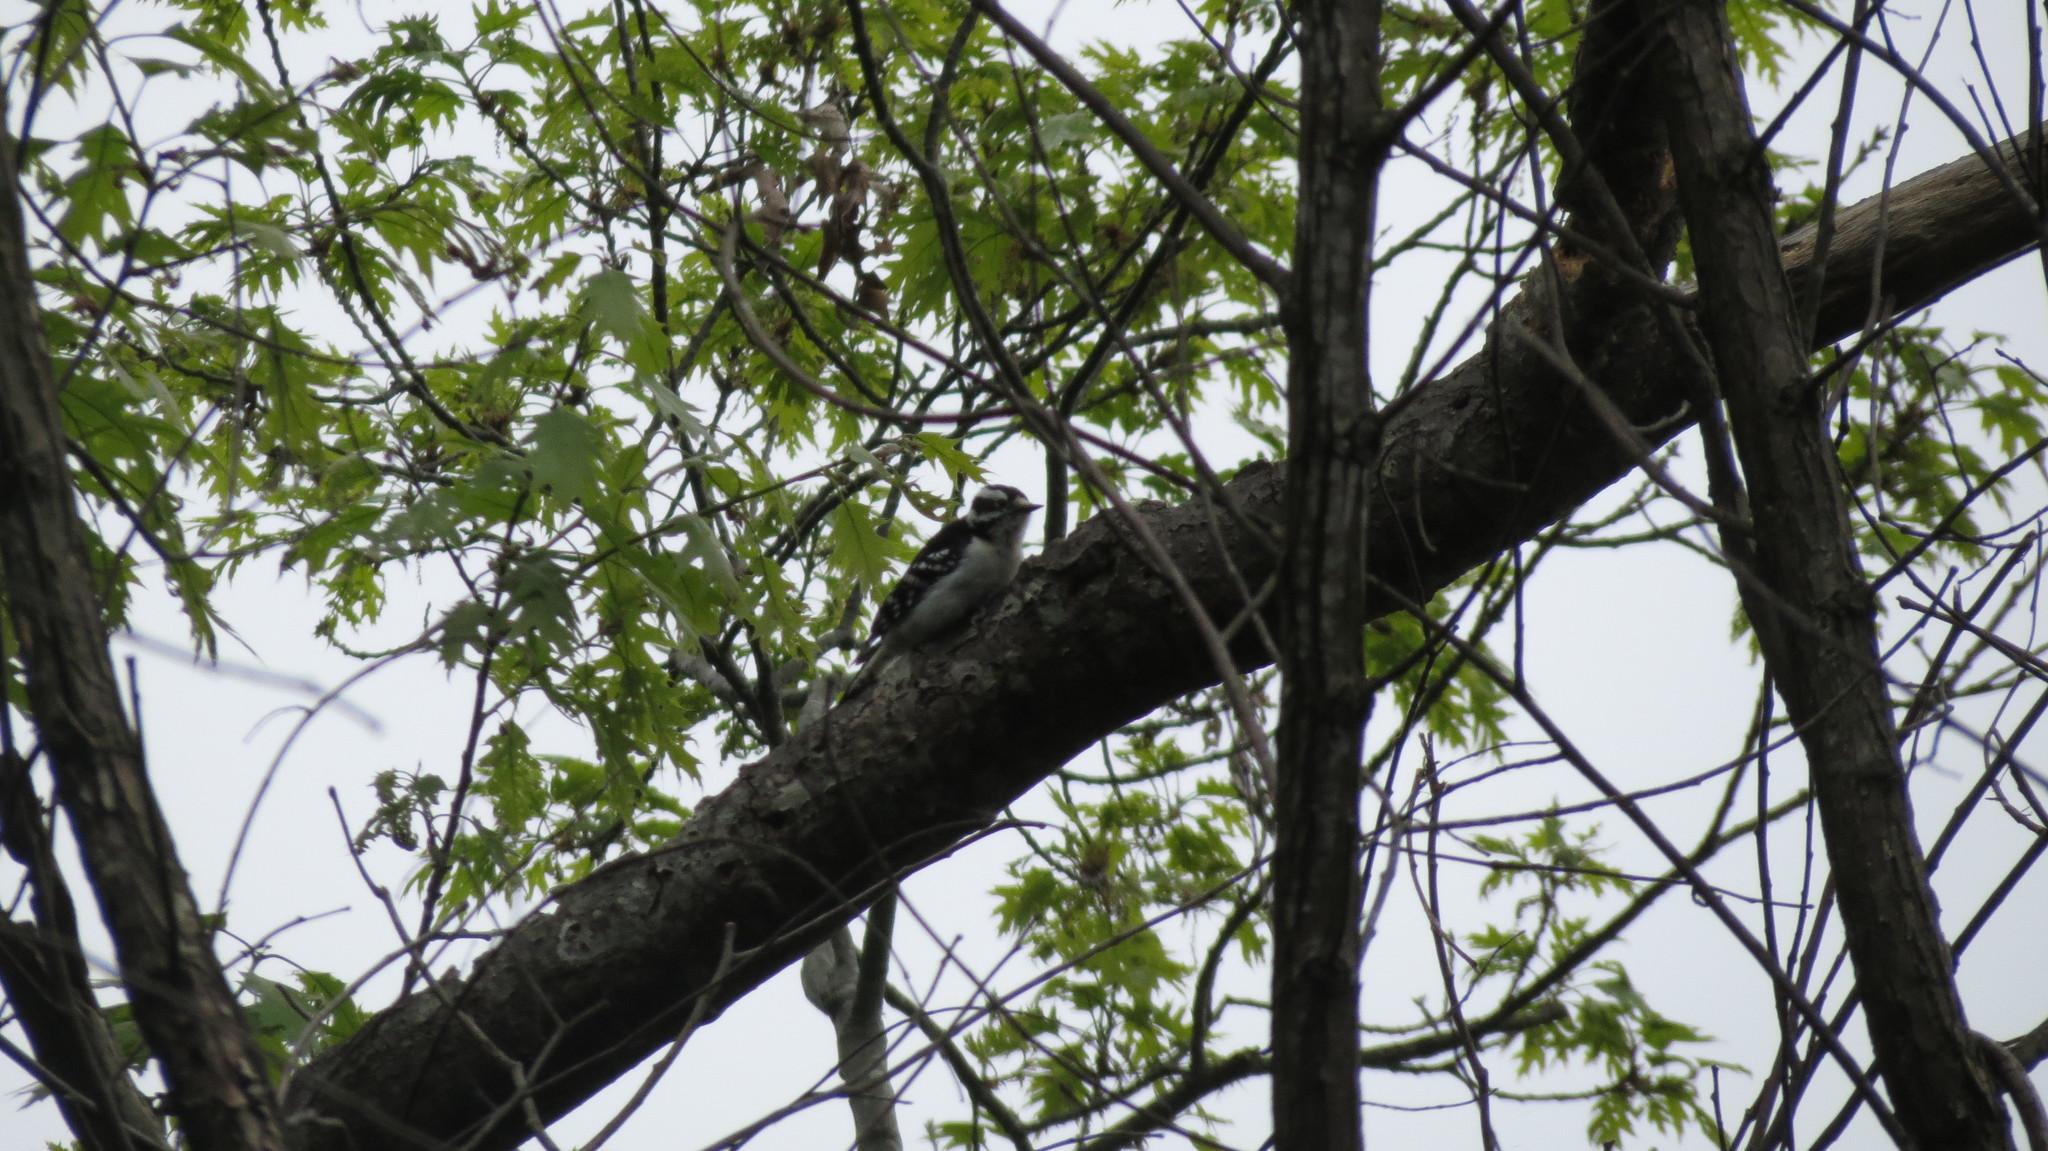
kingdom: Animalia
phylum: Chordata
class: Aves
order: Piciformes
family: Picidae
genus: Dryobates
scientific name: Dryobates pubescens
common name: Downy woodpecker
